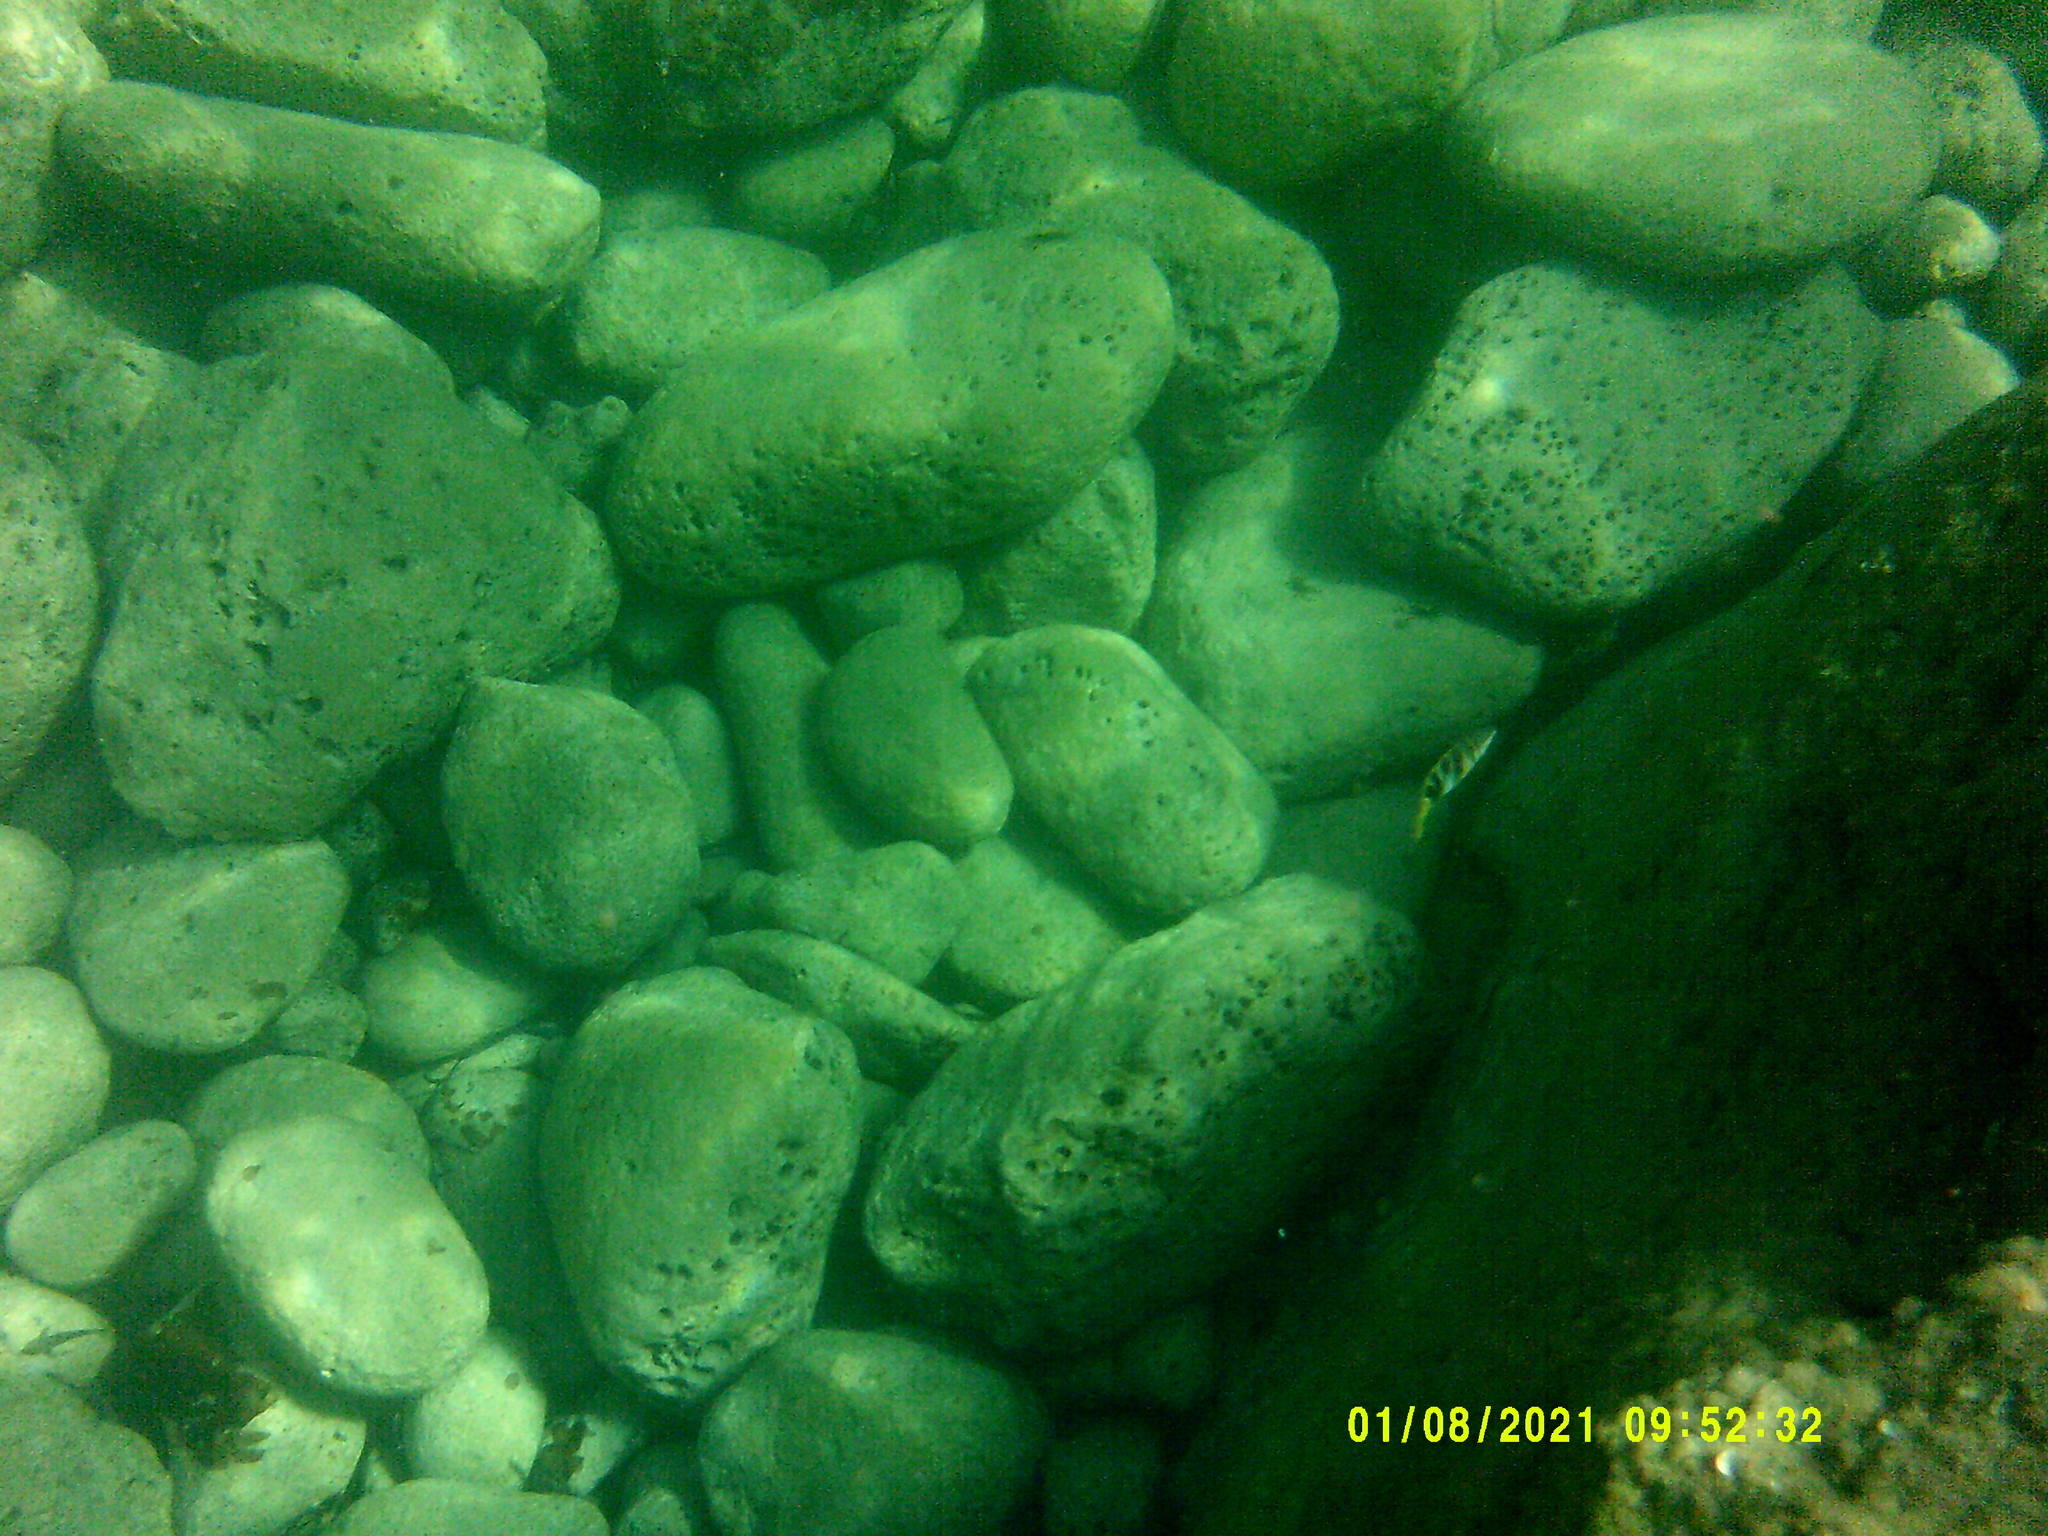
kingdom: Animalia
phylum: Chordata
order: Perciformes
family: Serranidae
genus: Serranus
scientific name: Serranus scriba
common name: Painted comber
